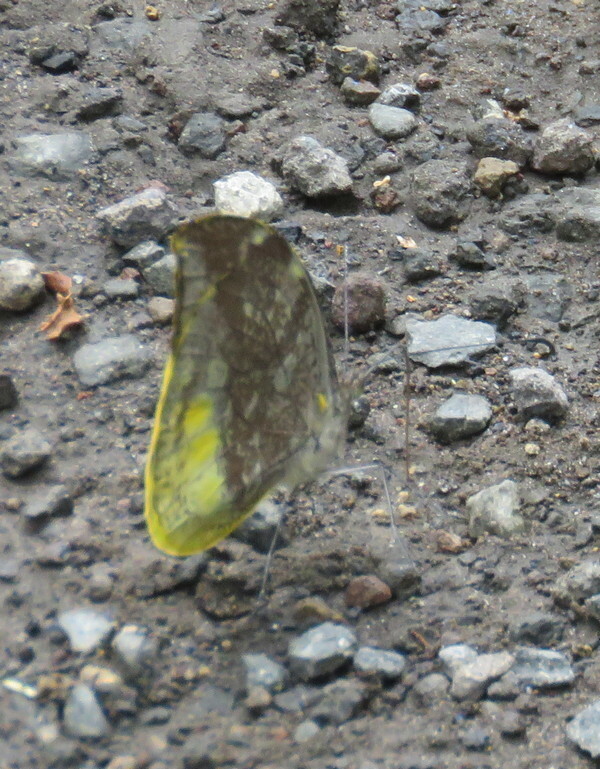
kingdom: Animalia
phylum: Arthropoda
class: Insecta
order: Lepidoptera
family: Pieridae
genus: Lieinix
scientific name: Lieinix nemesis
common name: Frosted mimic-white
